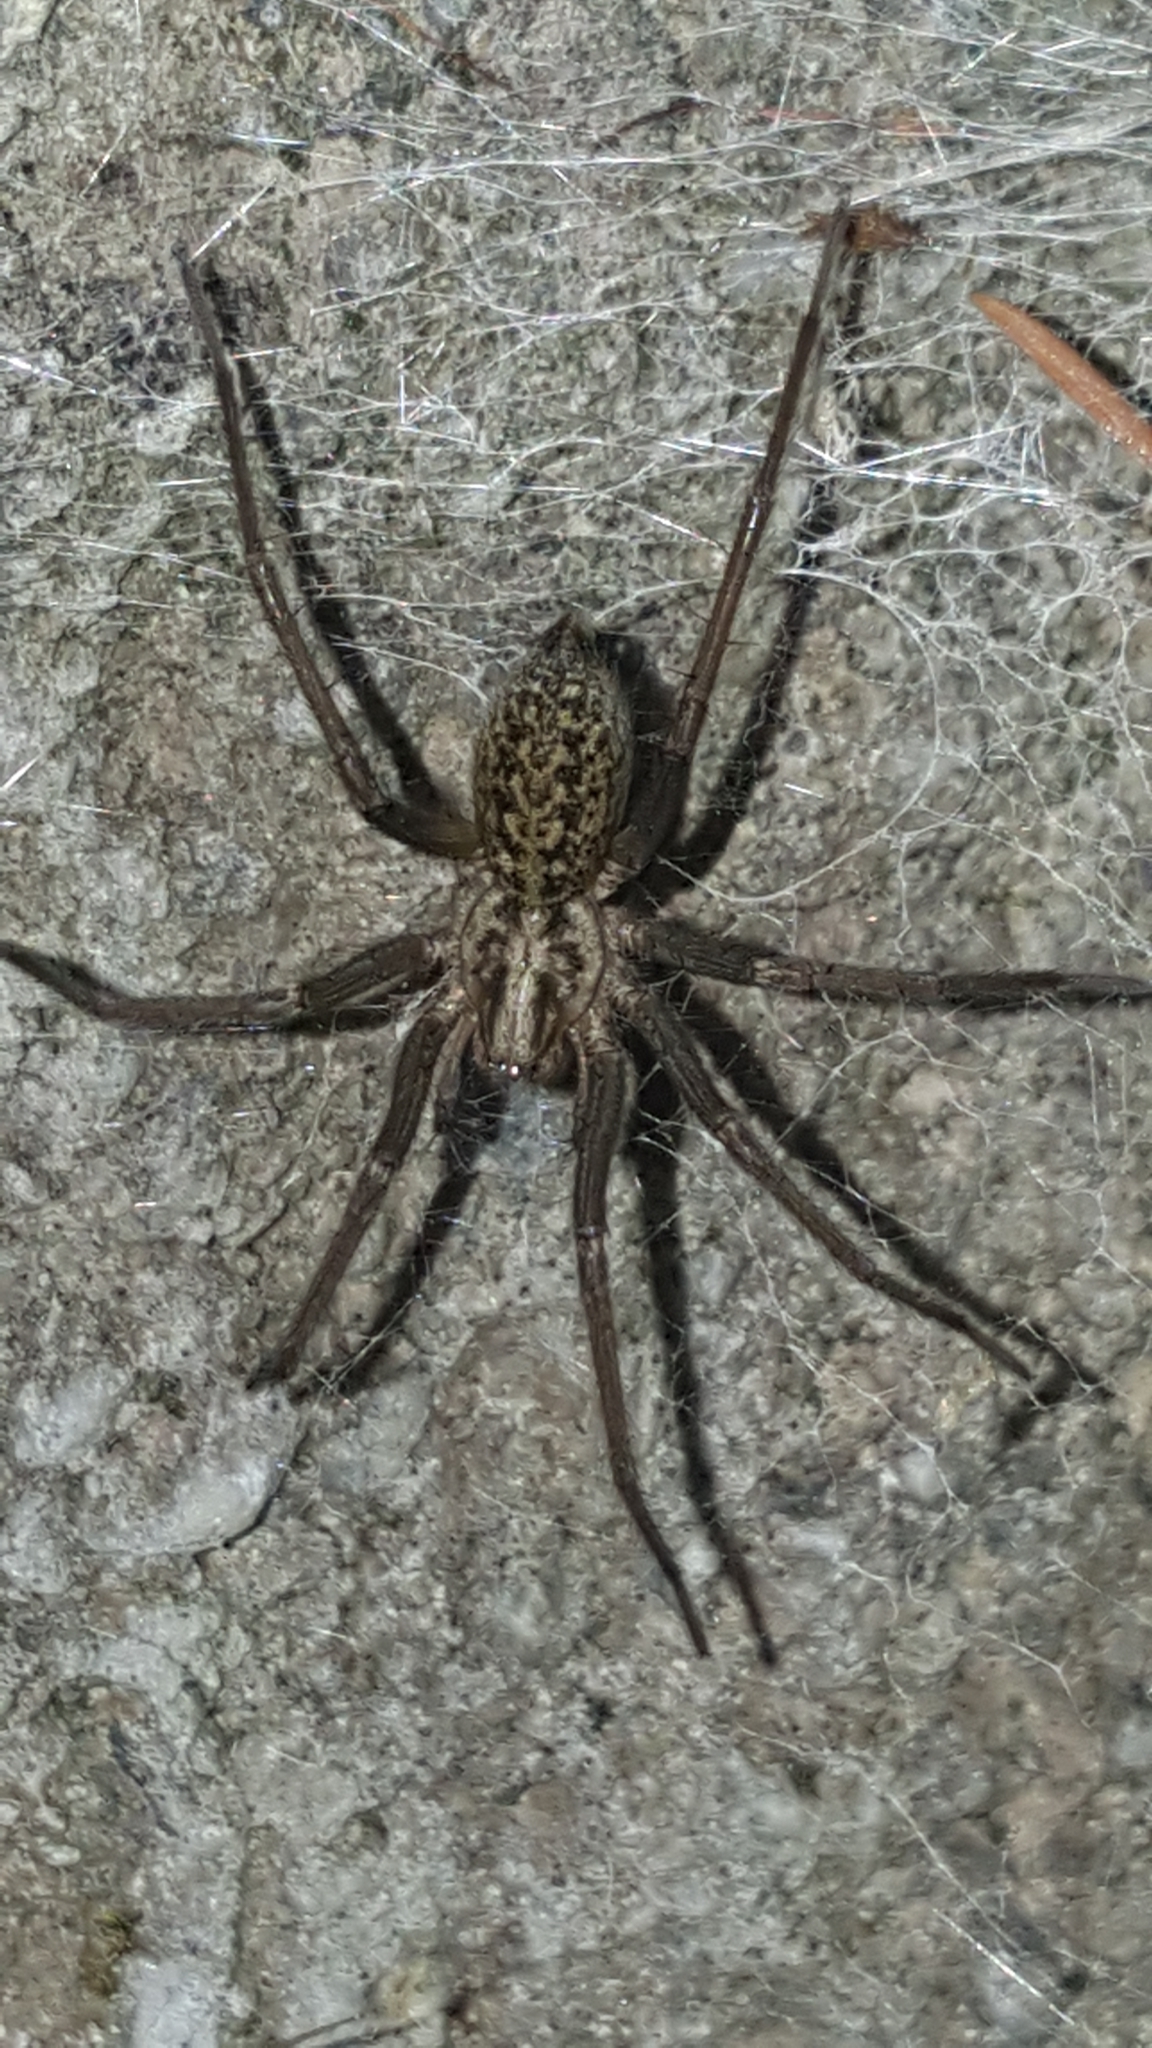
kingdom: Animalia
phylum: Arthropoda
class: Arachnida
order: Araneae
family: Agelenidae
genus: Eratigena
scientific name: Eratigena duellica
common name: Giant house spider
